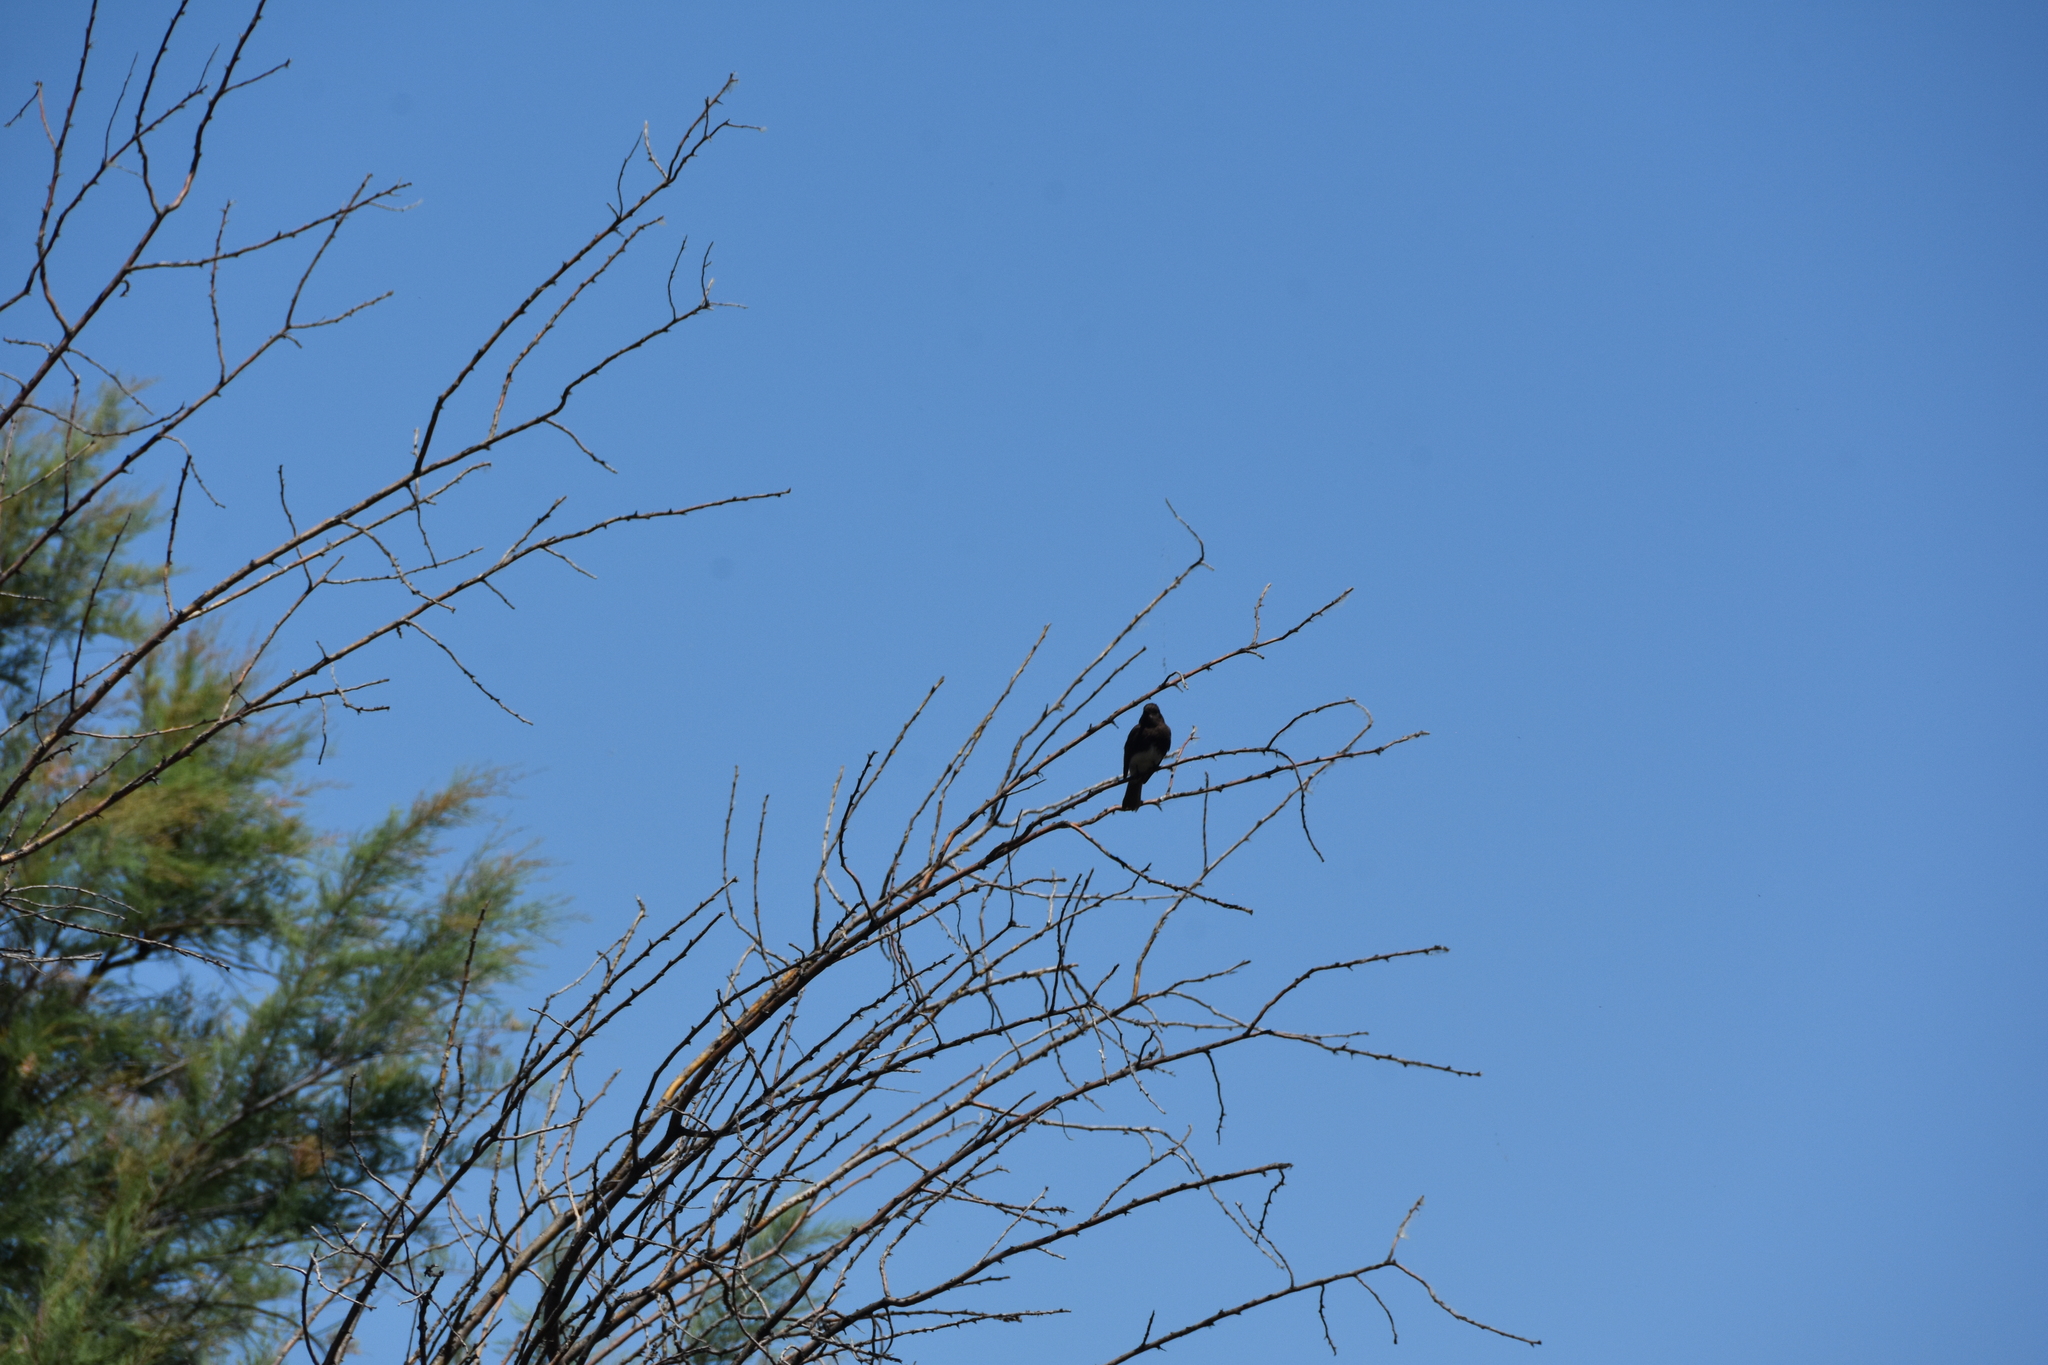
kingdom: Animalia
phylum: Chordata
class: Aves
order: Passeriformes
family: Tyrannidae
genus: Sayornis
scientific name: Sayornis nigricans
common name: Black phoebe
